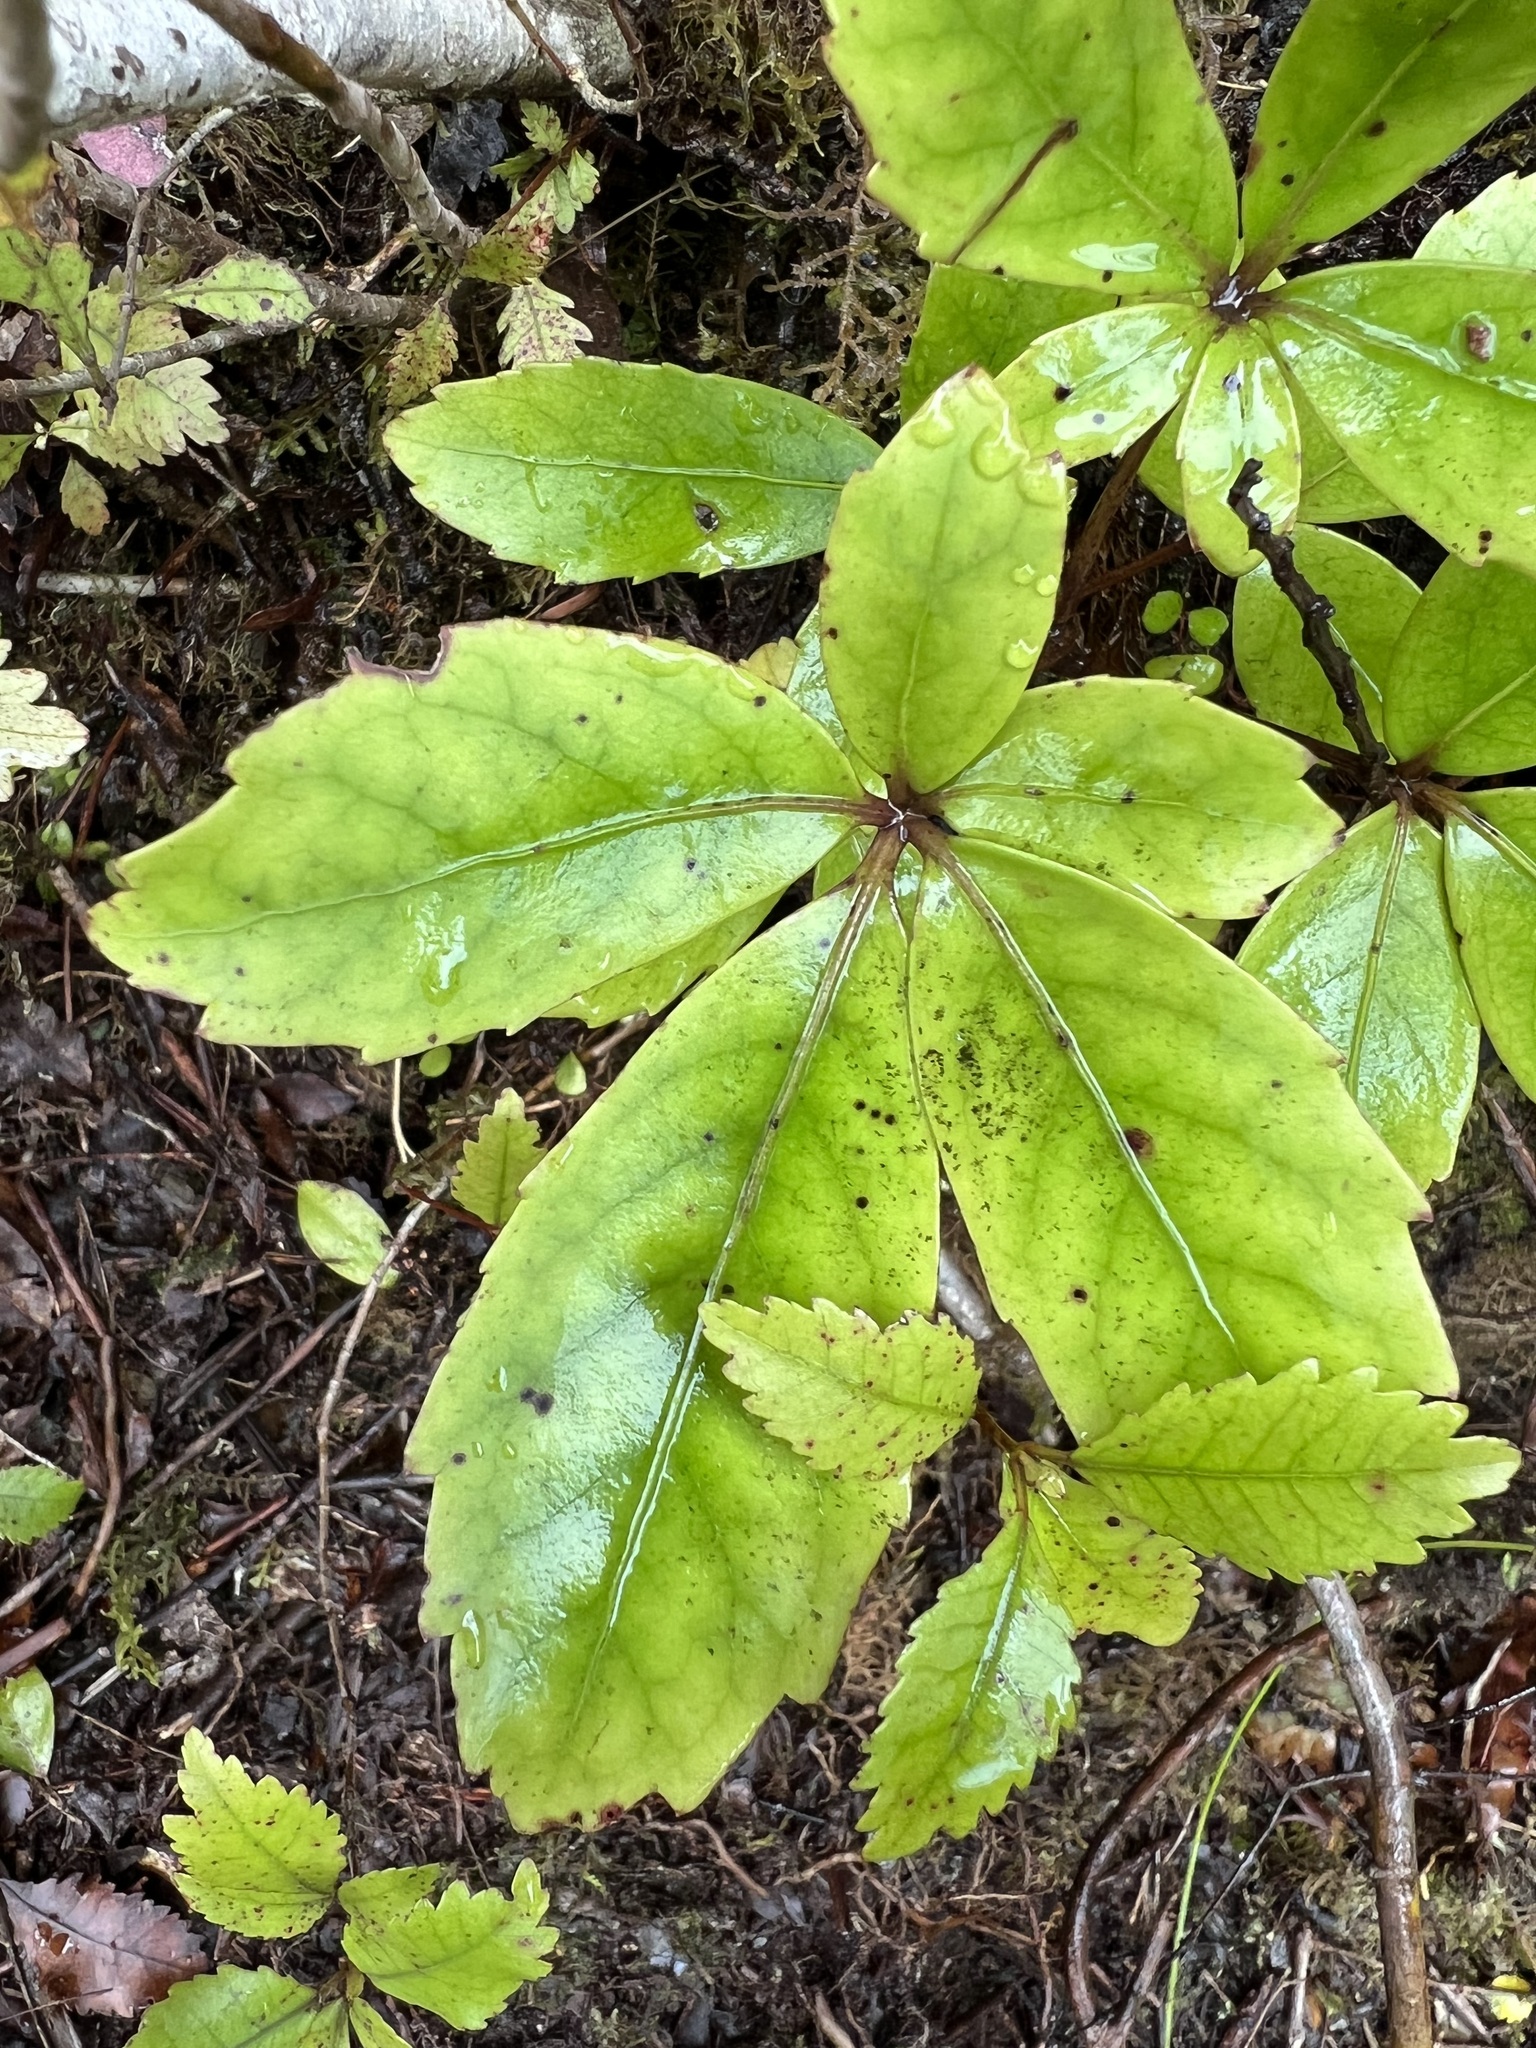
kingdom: Plantae
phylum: Tracheophyta
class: Magnoliopsida
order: Apiales
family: Araliaceae
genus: Neopanax
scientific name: Neopanax laetus
